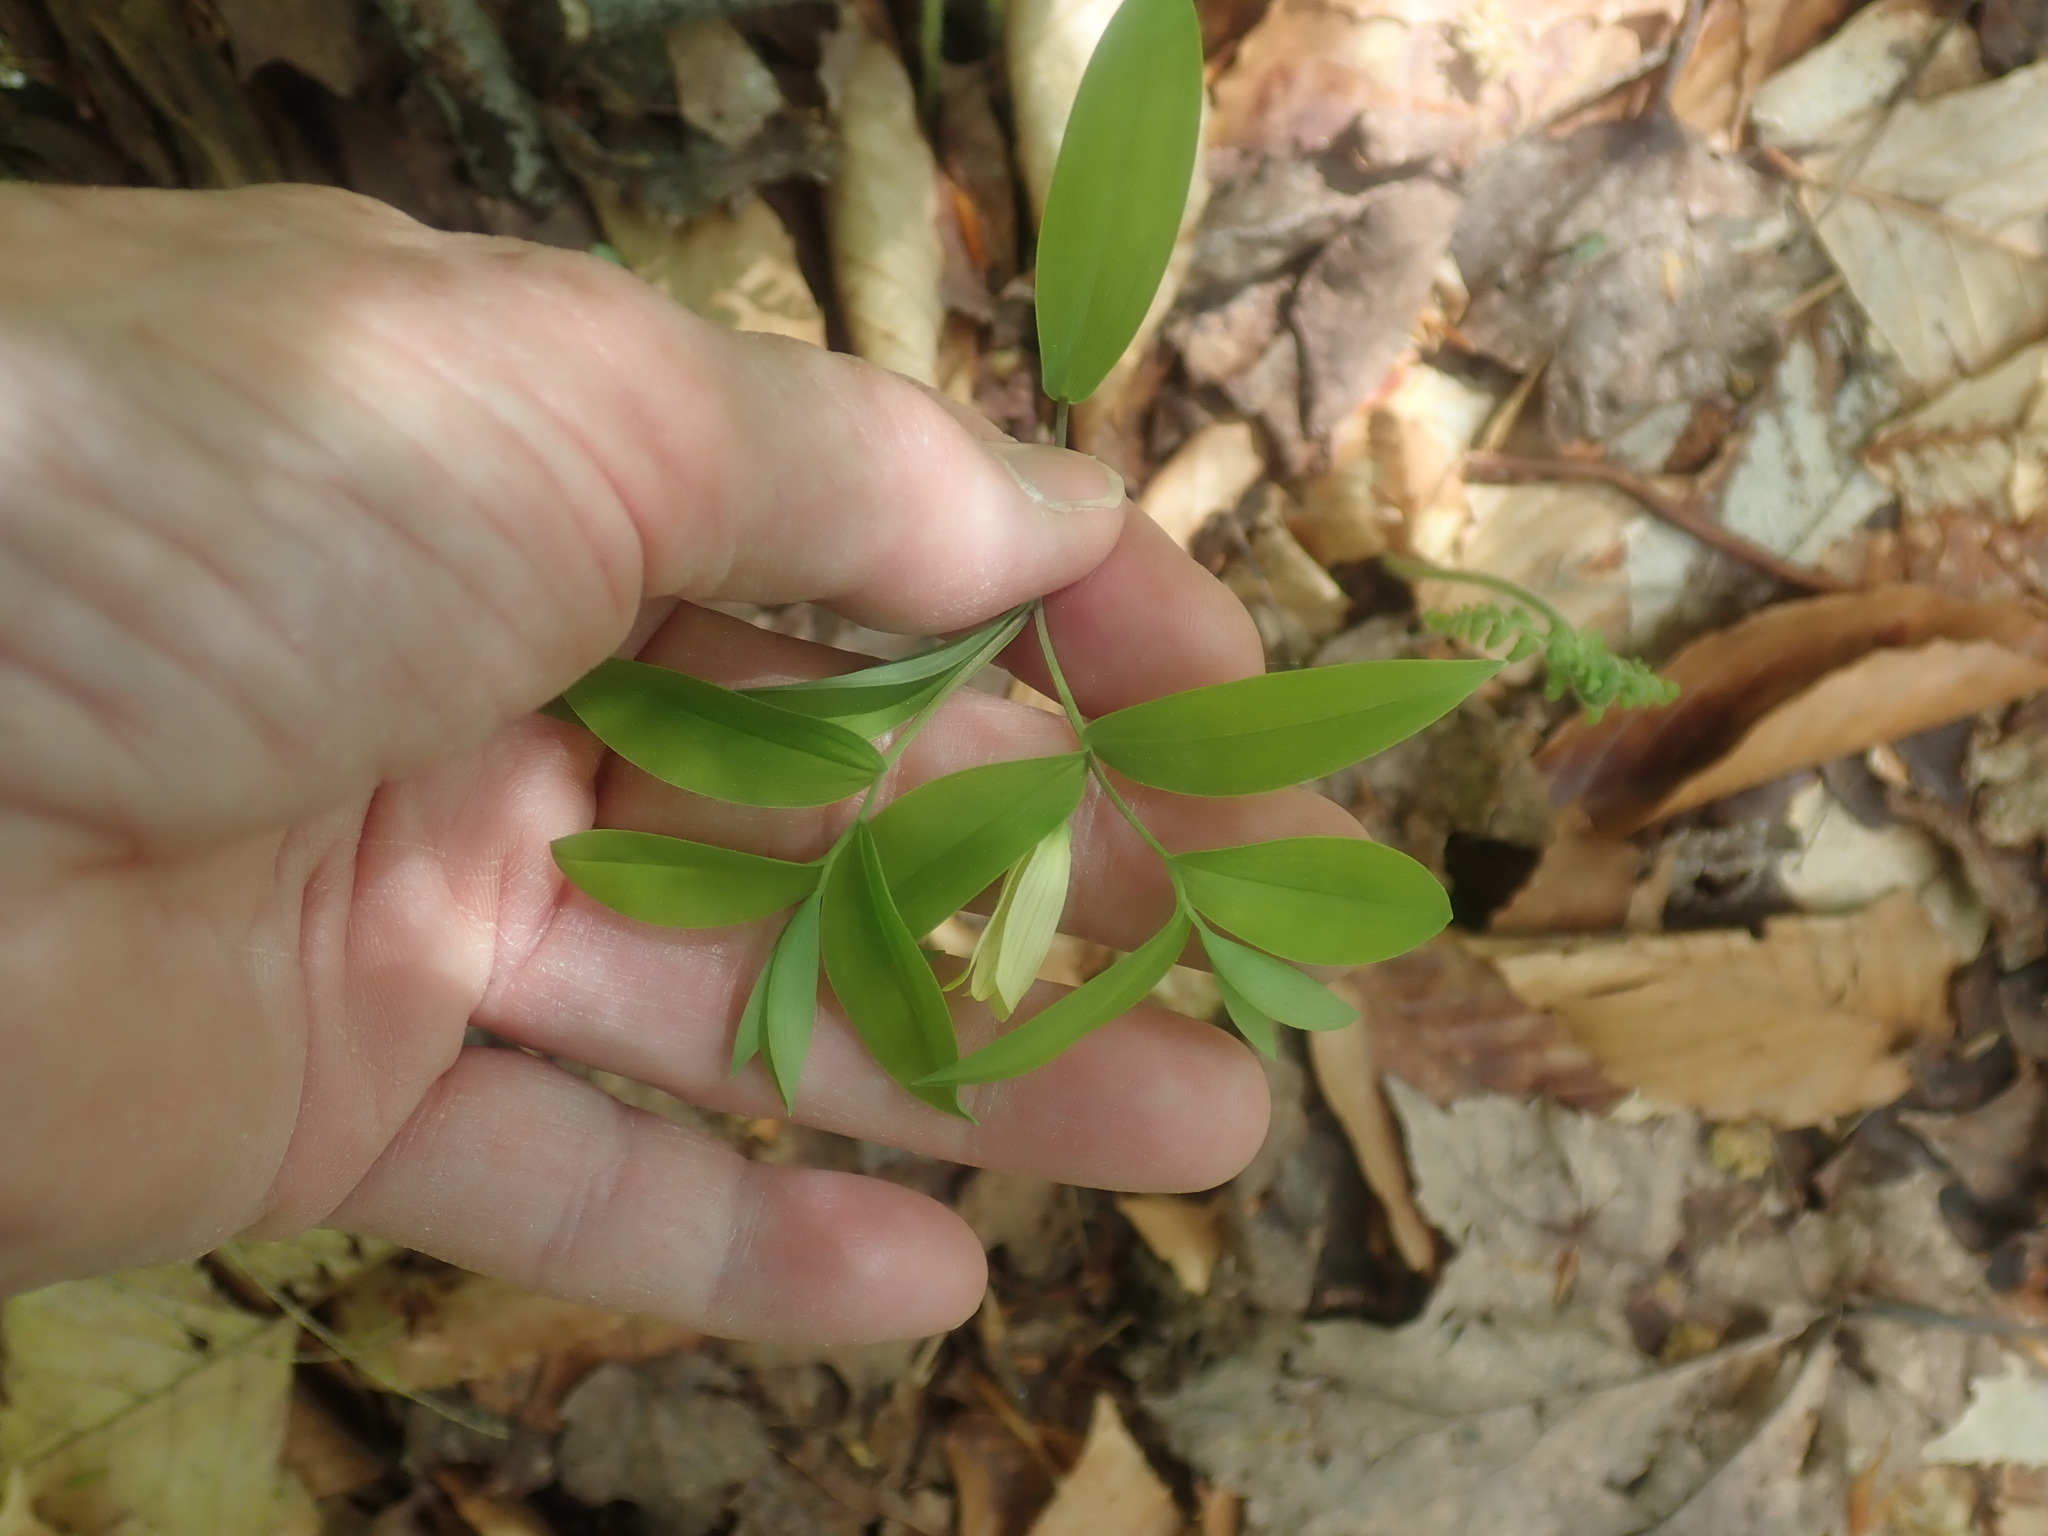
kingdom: Plantae
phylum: Tracheophyta
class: Liliopsida
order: Liliales
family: Colchicaceae
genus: Uvularia
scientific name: Uvularia sessilifolia
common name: Straw-lily
